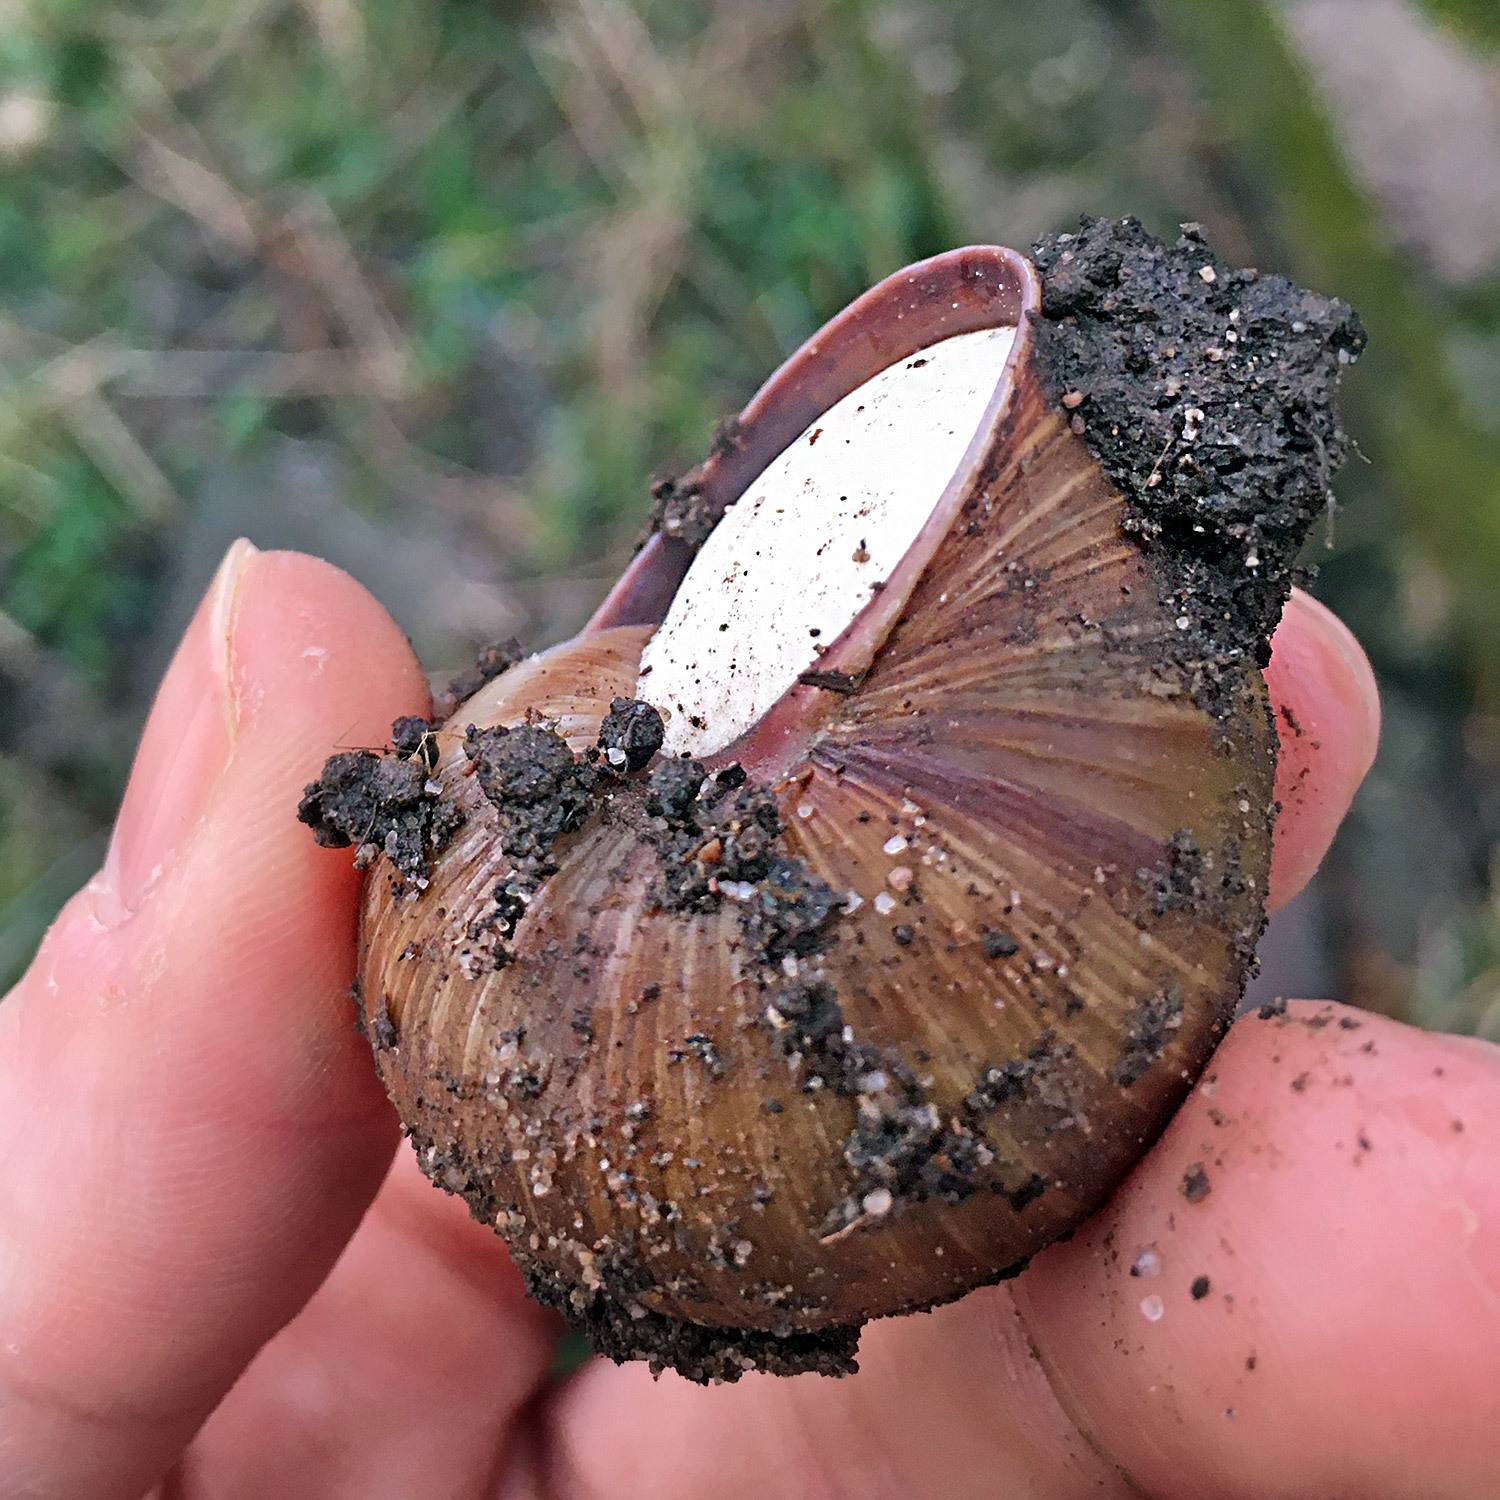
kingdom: Animalia
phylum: Mollusca
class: Gastropoda
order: Stylommatophora
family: Helicidae
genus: Helix
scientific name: Helix pomatia
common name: Roman snail
